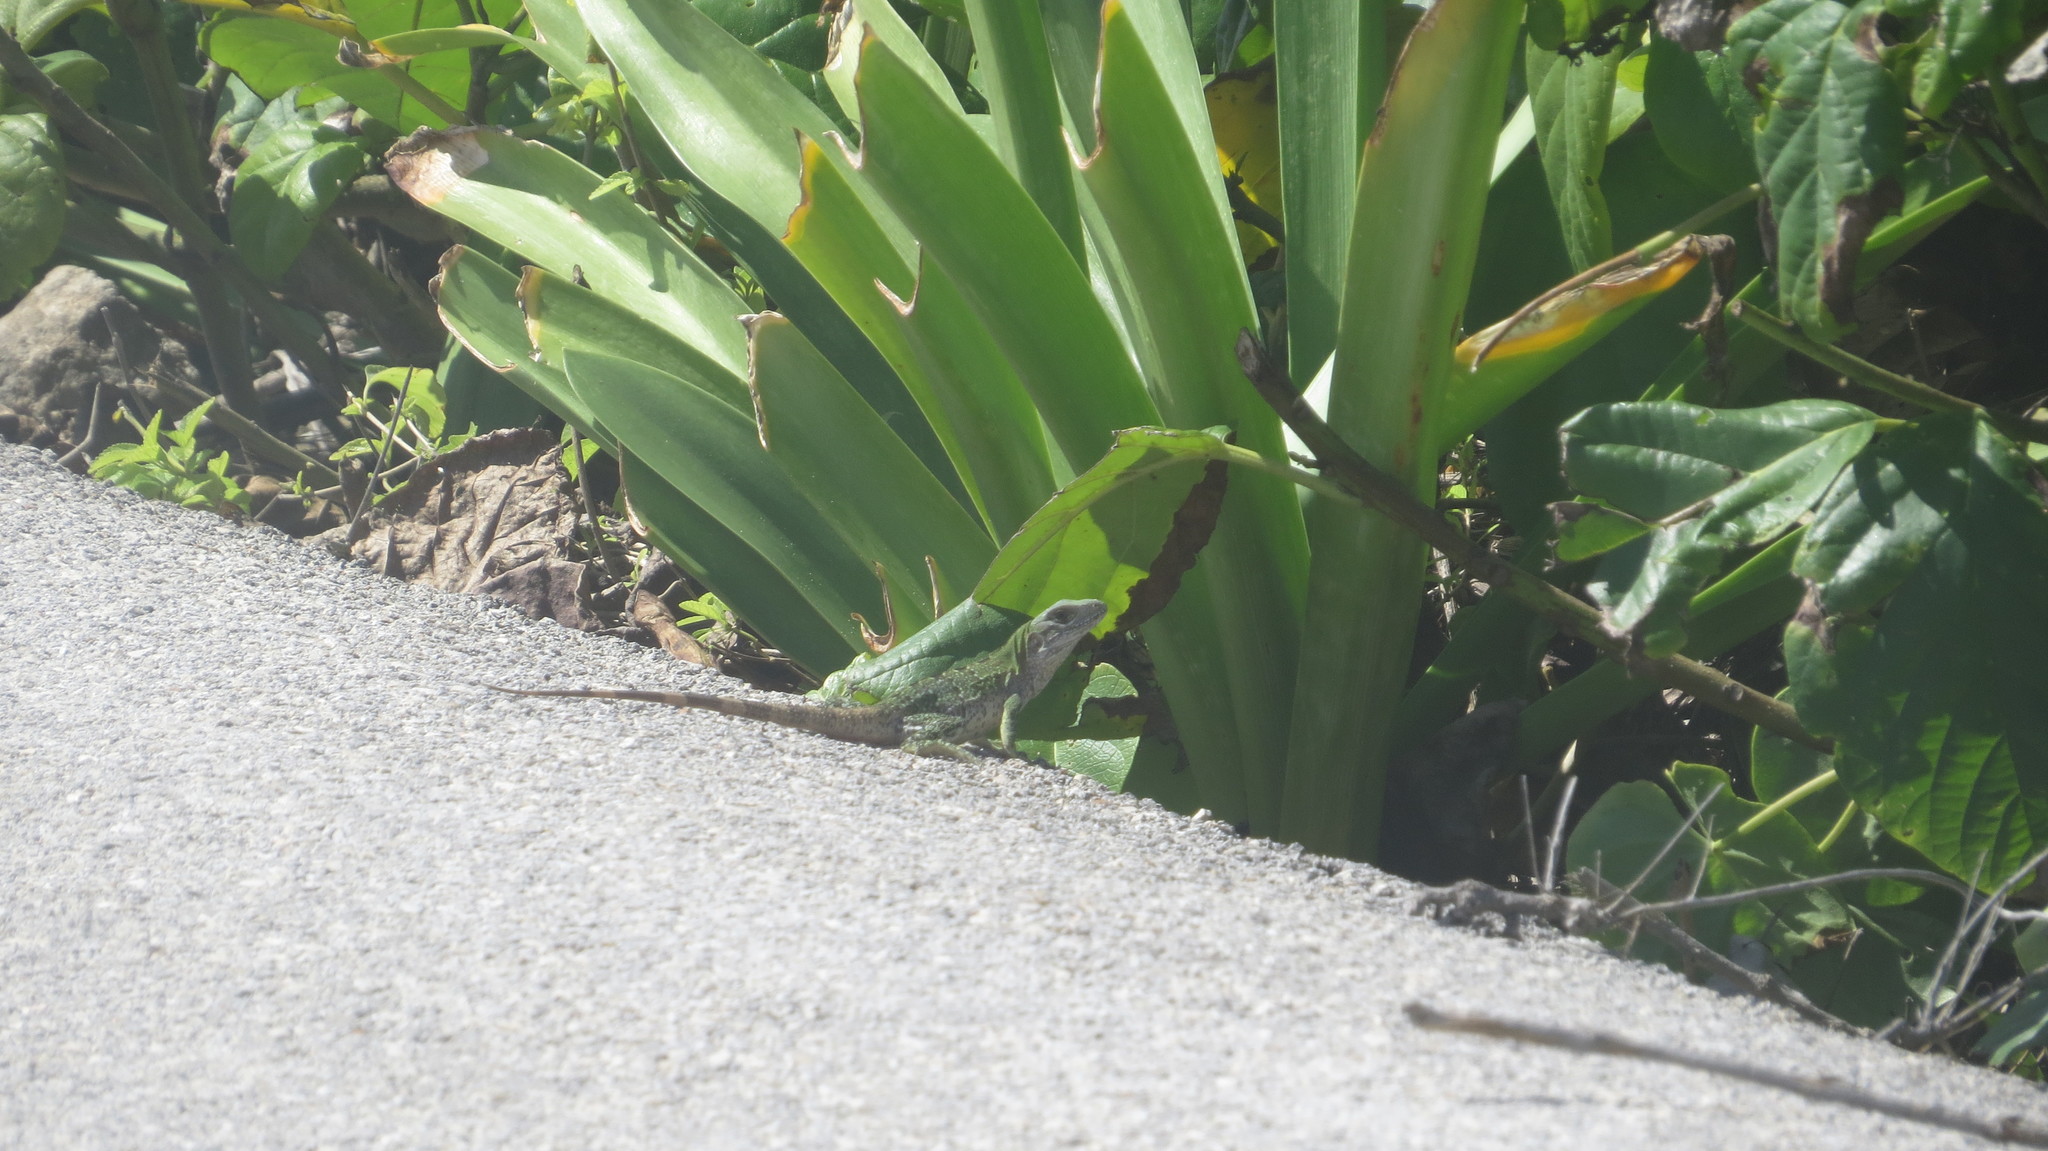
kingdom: Animalia
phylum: Chordata
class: Squamata
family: Iguanidae
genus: Ctenosaura
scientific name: Ctenosaura similis
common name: Black spiny-tailed iguana
